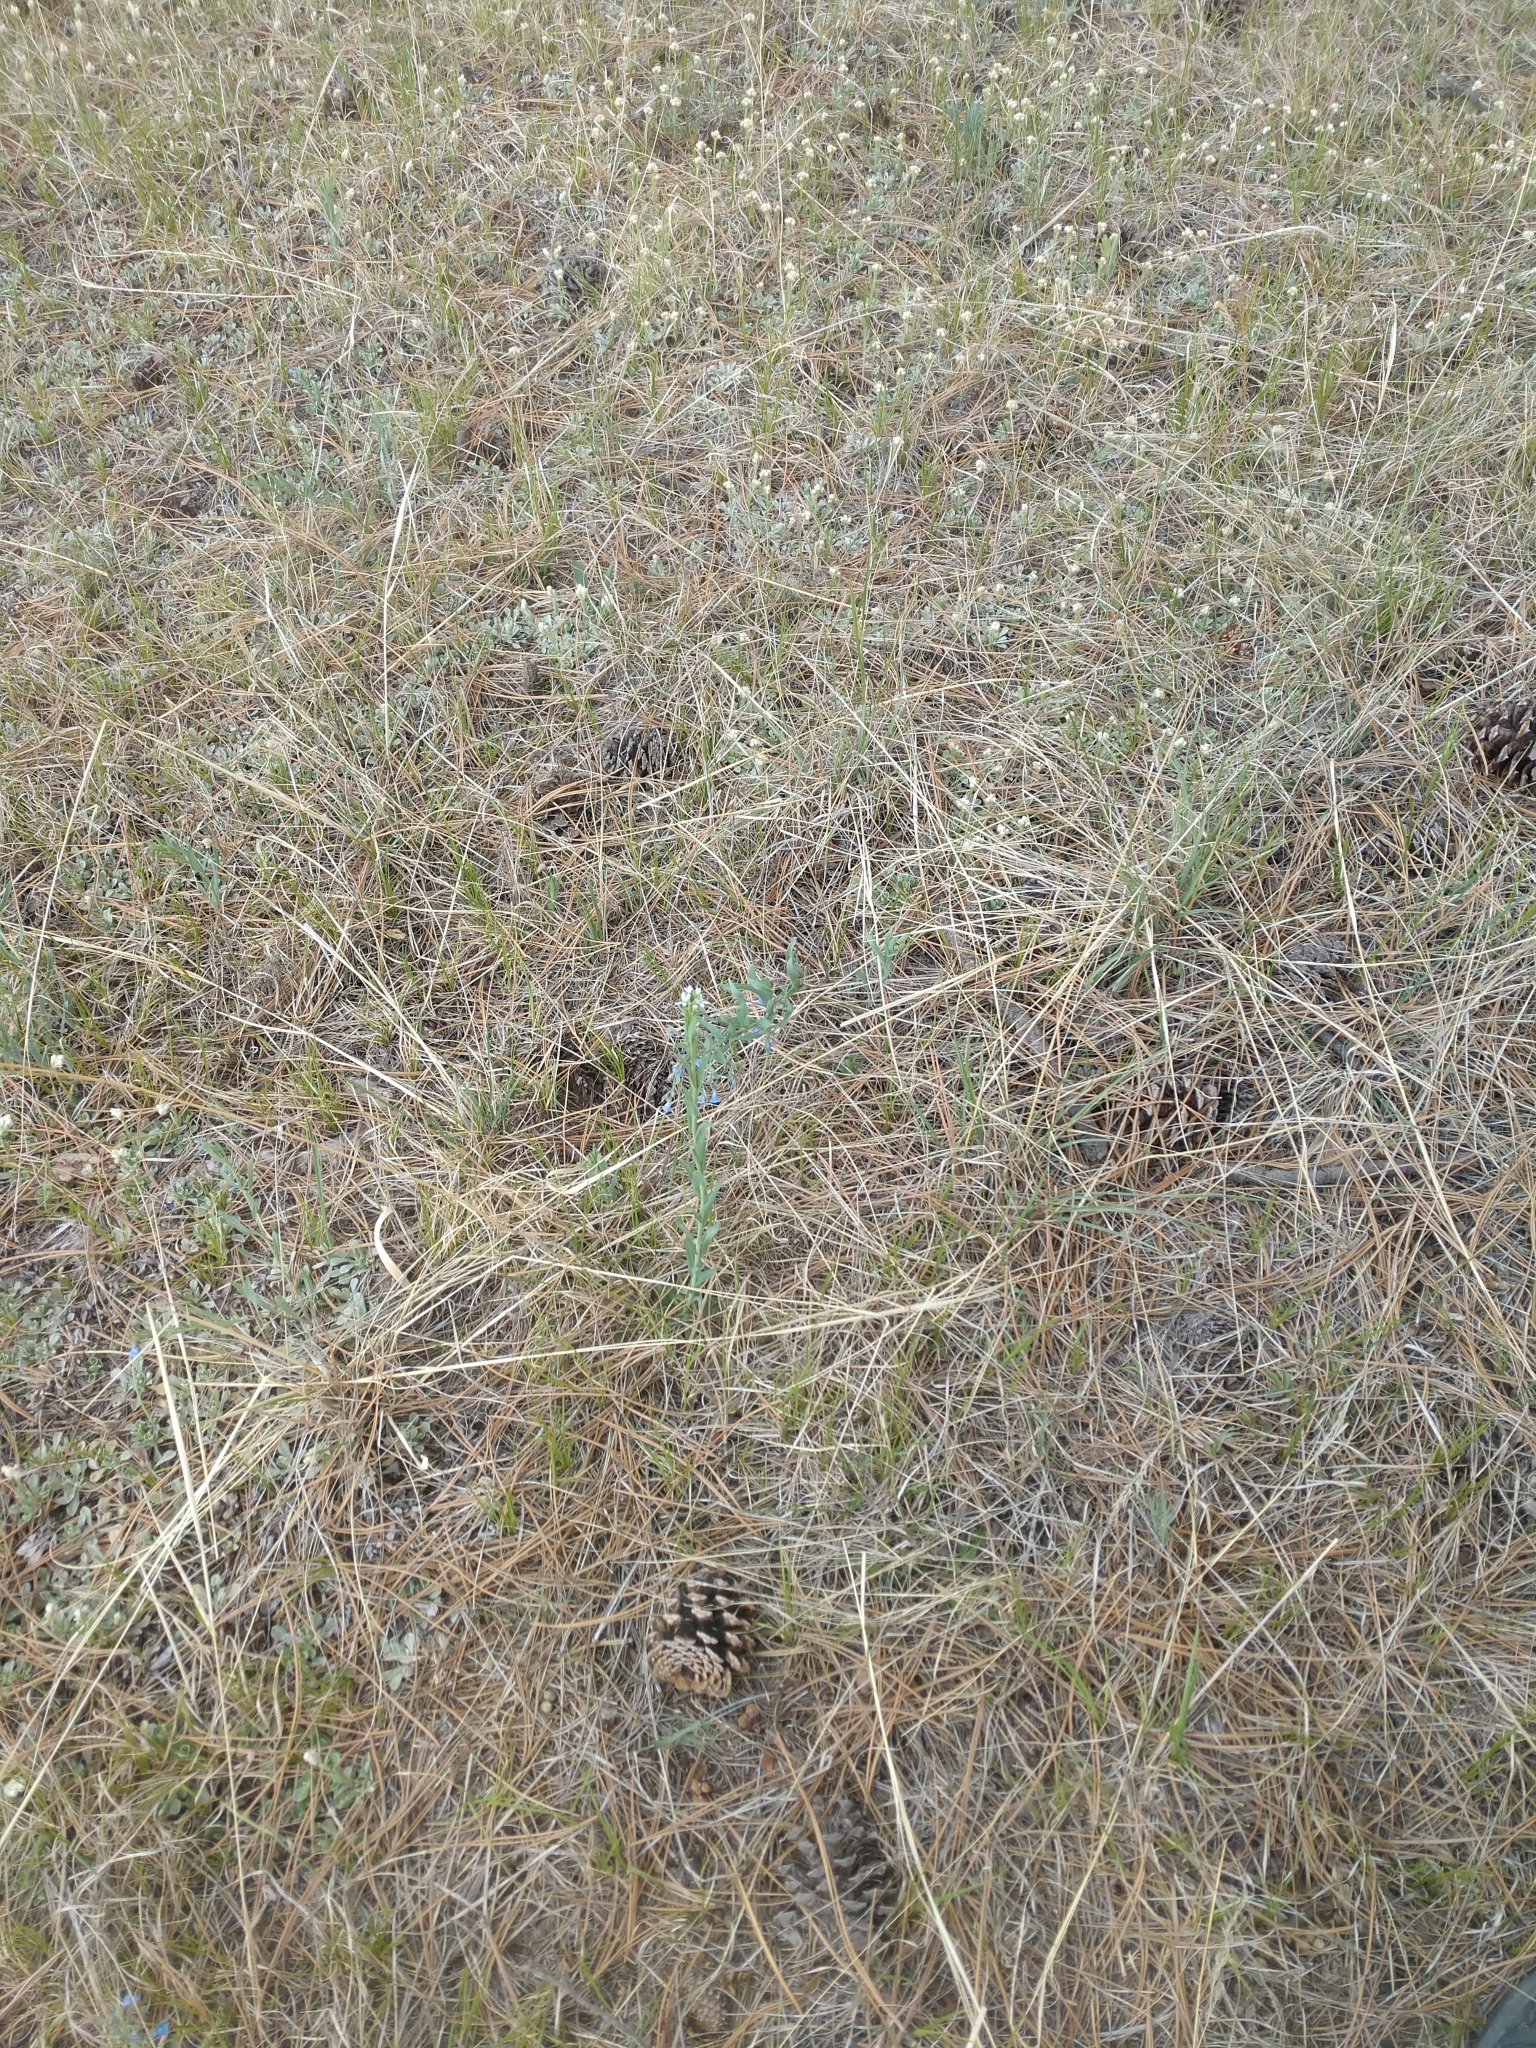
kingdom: Plantae
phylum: Tracheophyta
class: Magnoliopsida
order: Brassicales
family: Brassicaceae
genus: Boechera
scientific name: Boechera stricta
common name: Canadian rockcress
